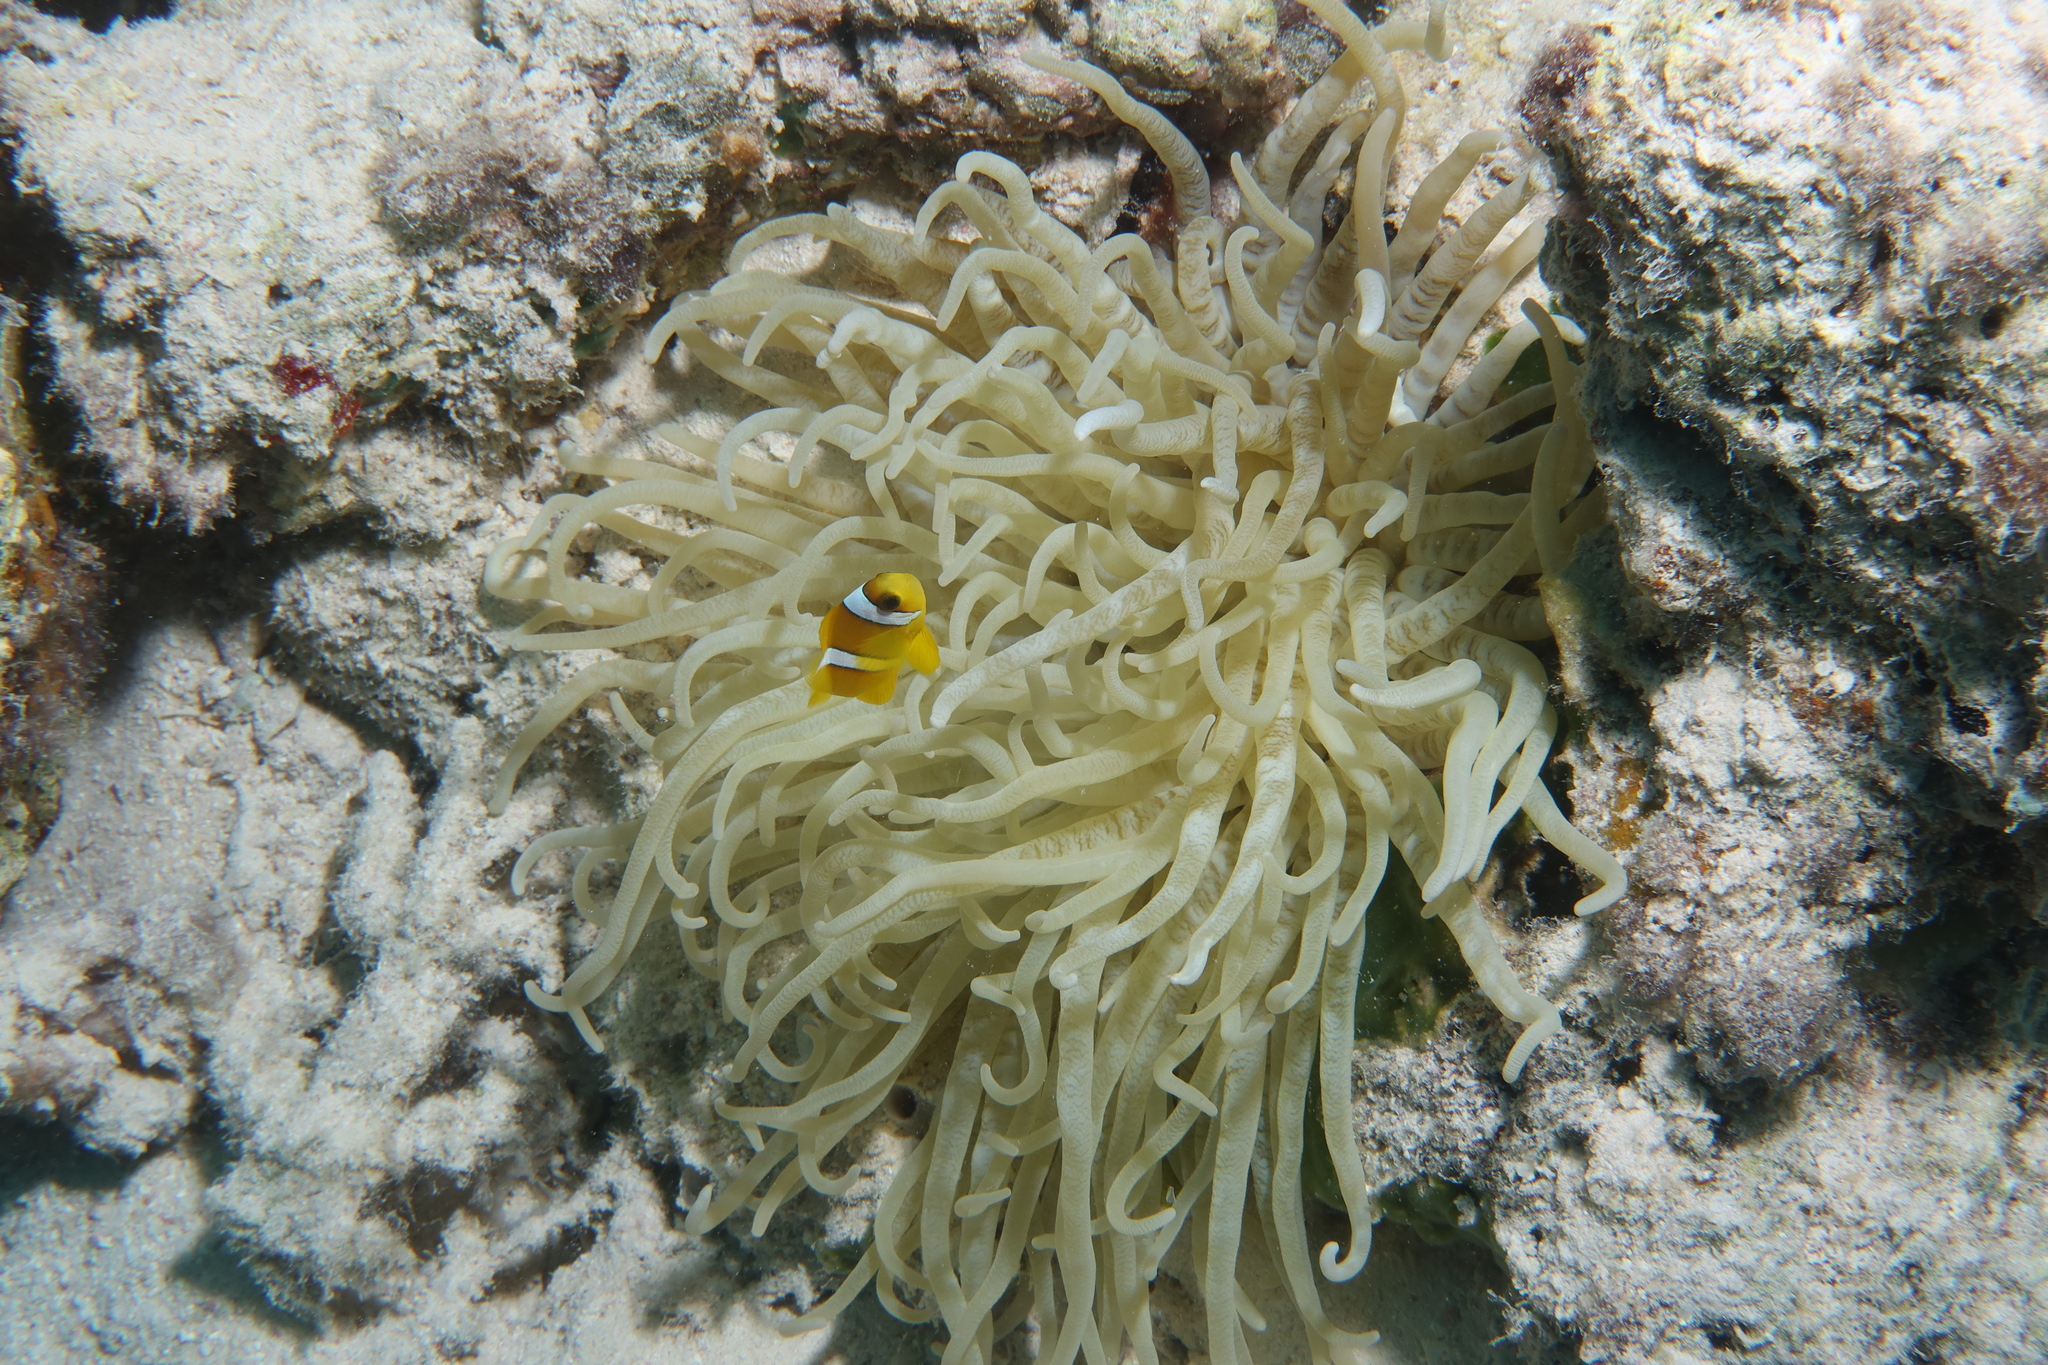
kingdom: Animalia
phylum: Chordata
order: Perciformes
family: Pomacentridae
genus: Amphiprion
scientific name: Amphiprion bicinctus
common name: Two-banded anemonefish
